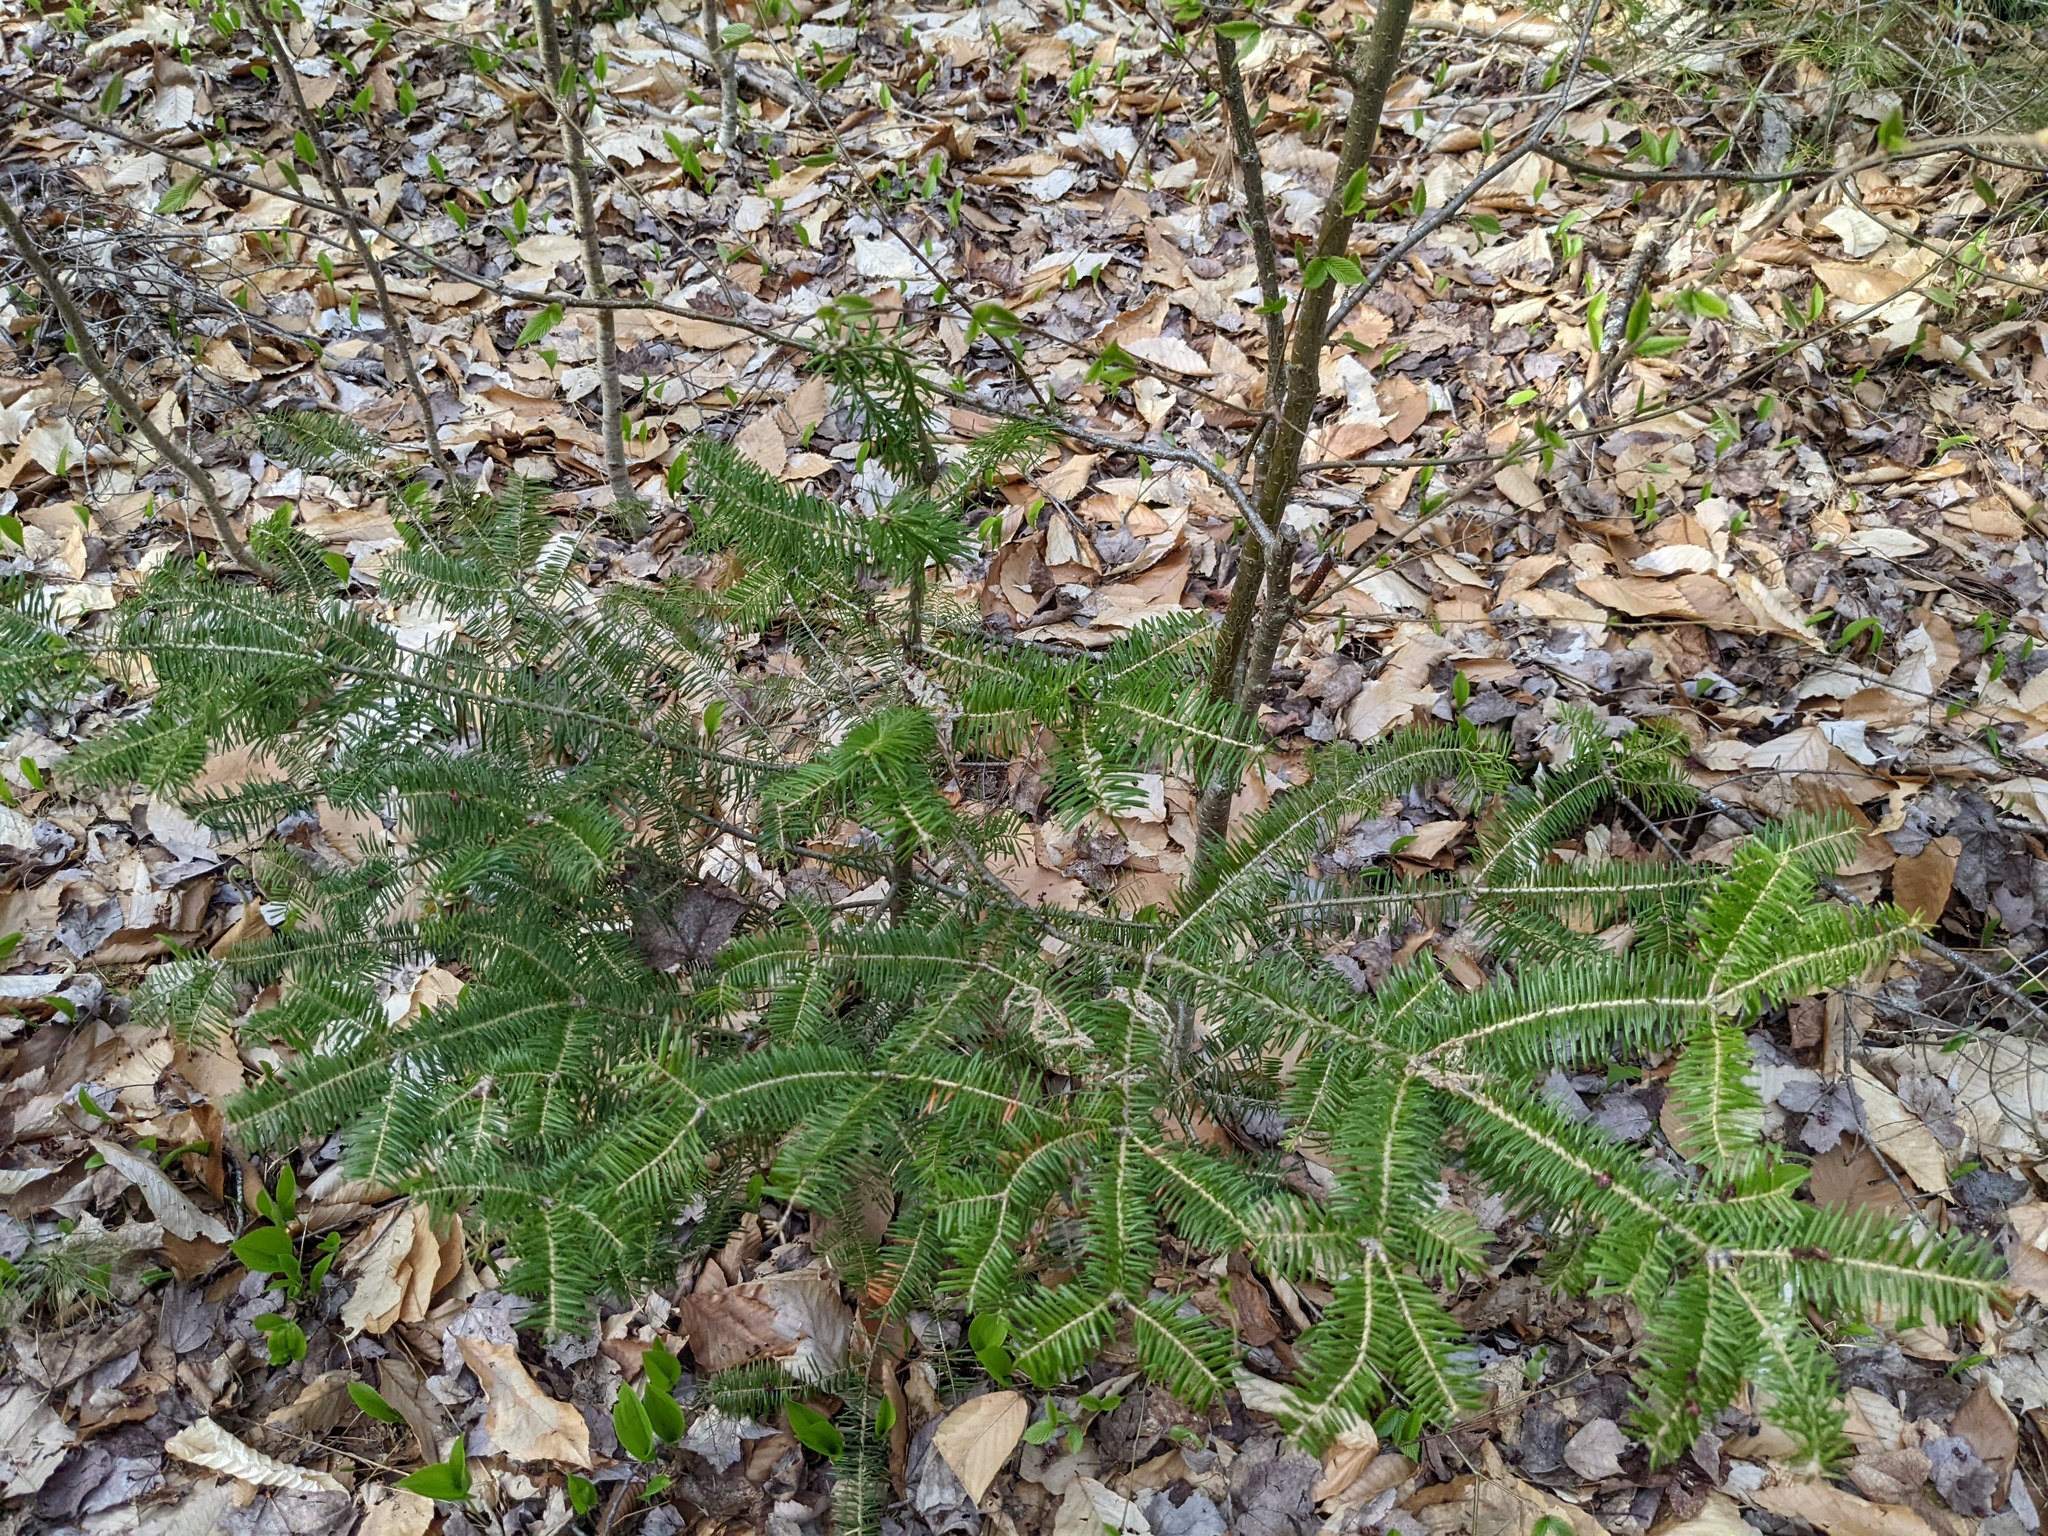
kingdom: Plantae
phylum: Tracheophyta
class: Pinopsida
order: Pinales
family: Pinaceae
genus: Abies
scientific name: Abies balsamea
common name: Balsam fir
